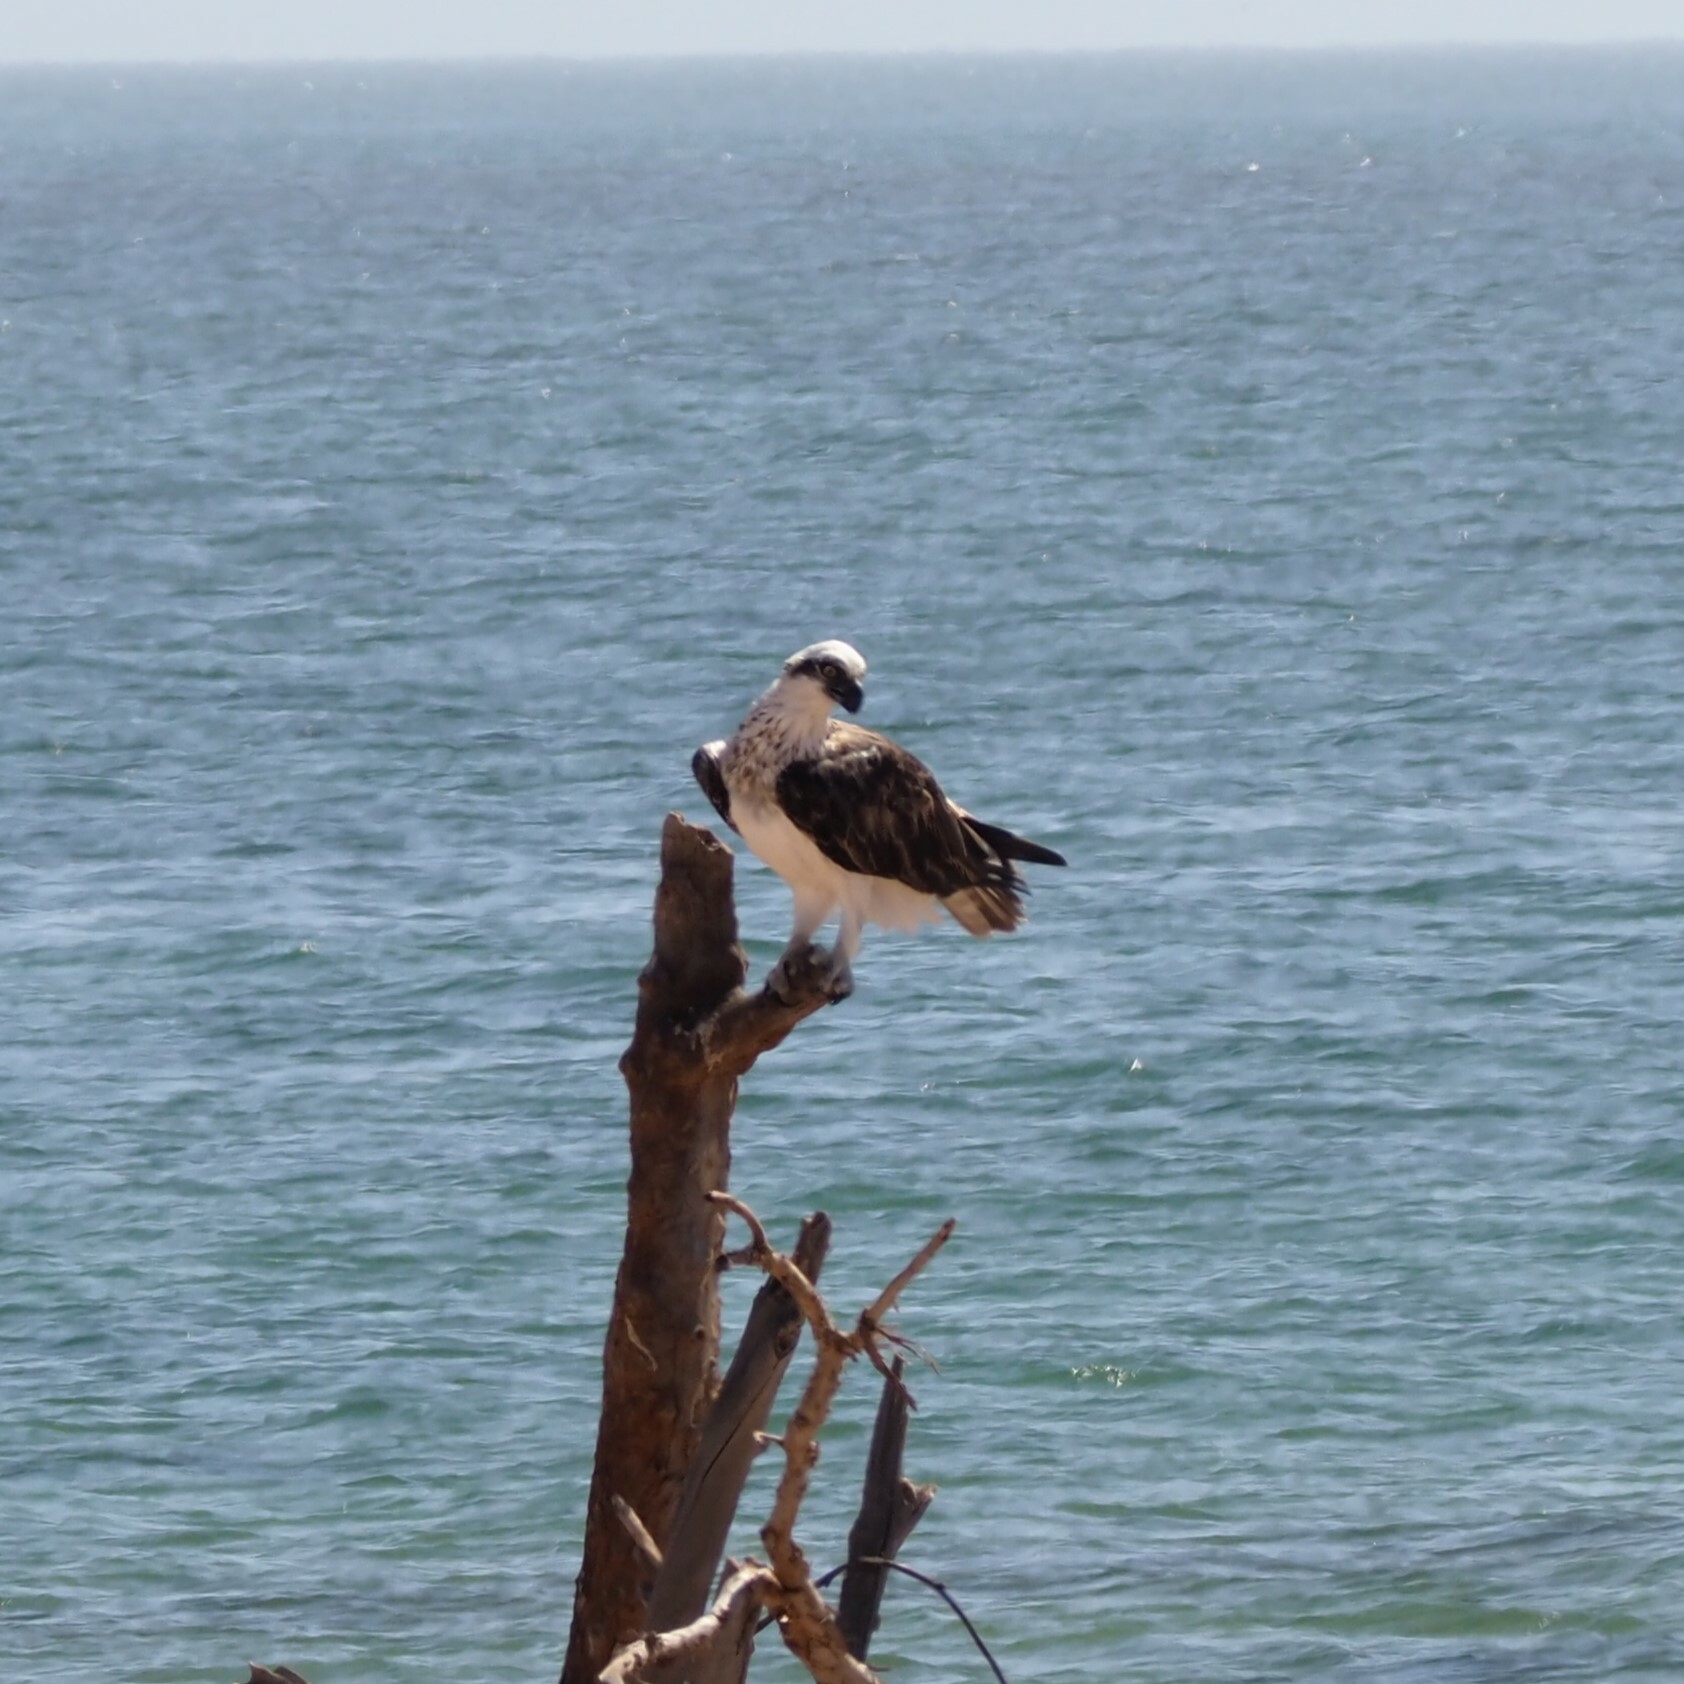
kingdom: Animalia
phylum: Chordata
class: Aves
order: Accipitriformes
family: Pandionidae
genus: Pandion
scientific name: Pandion cristatus
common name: Eastern osprey
